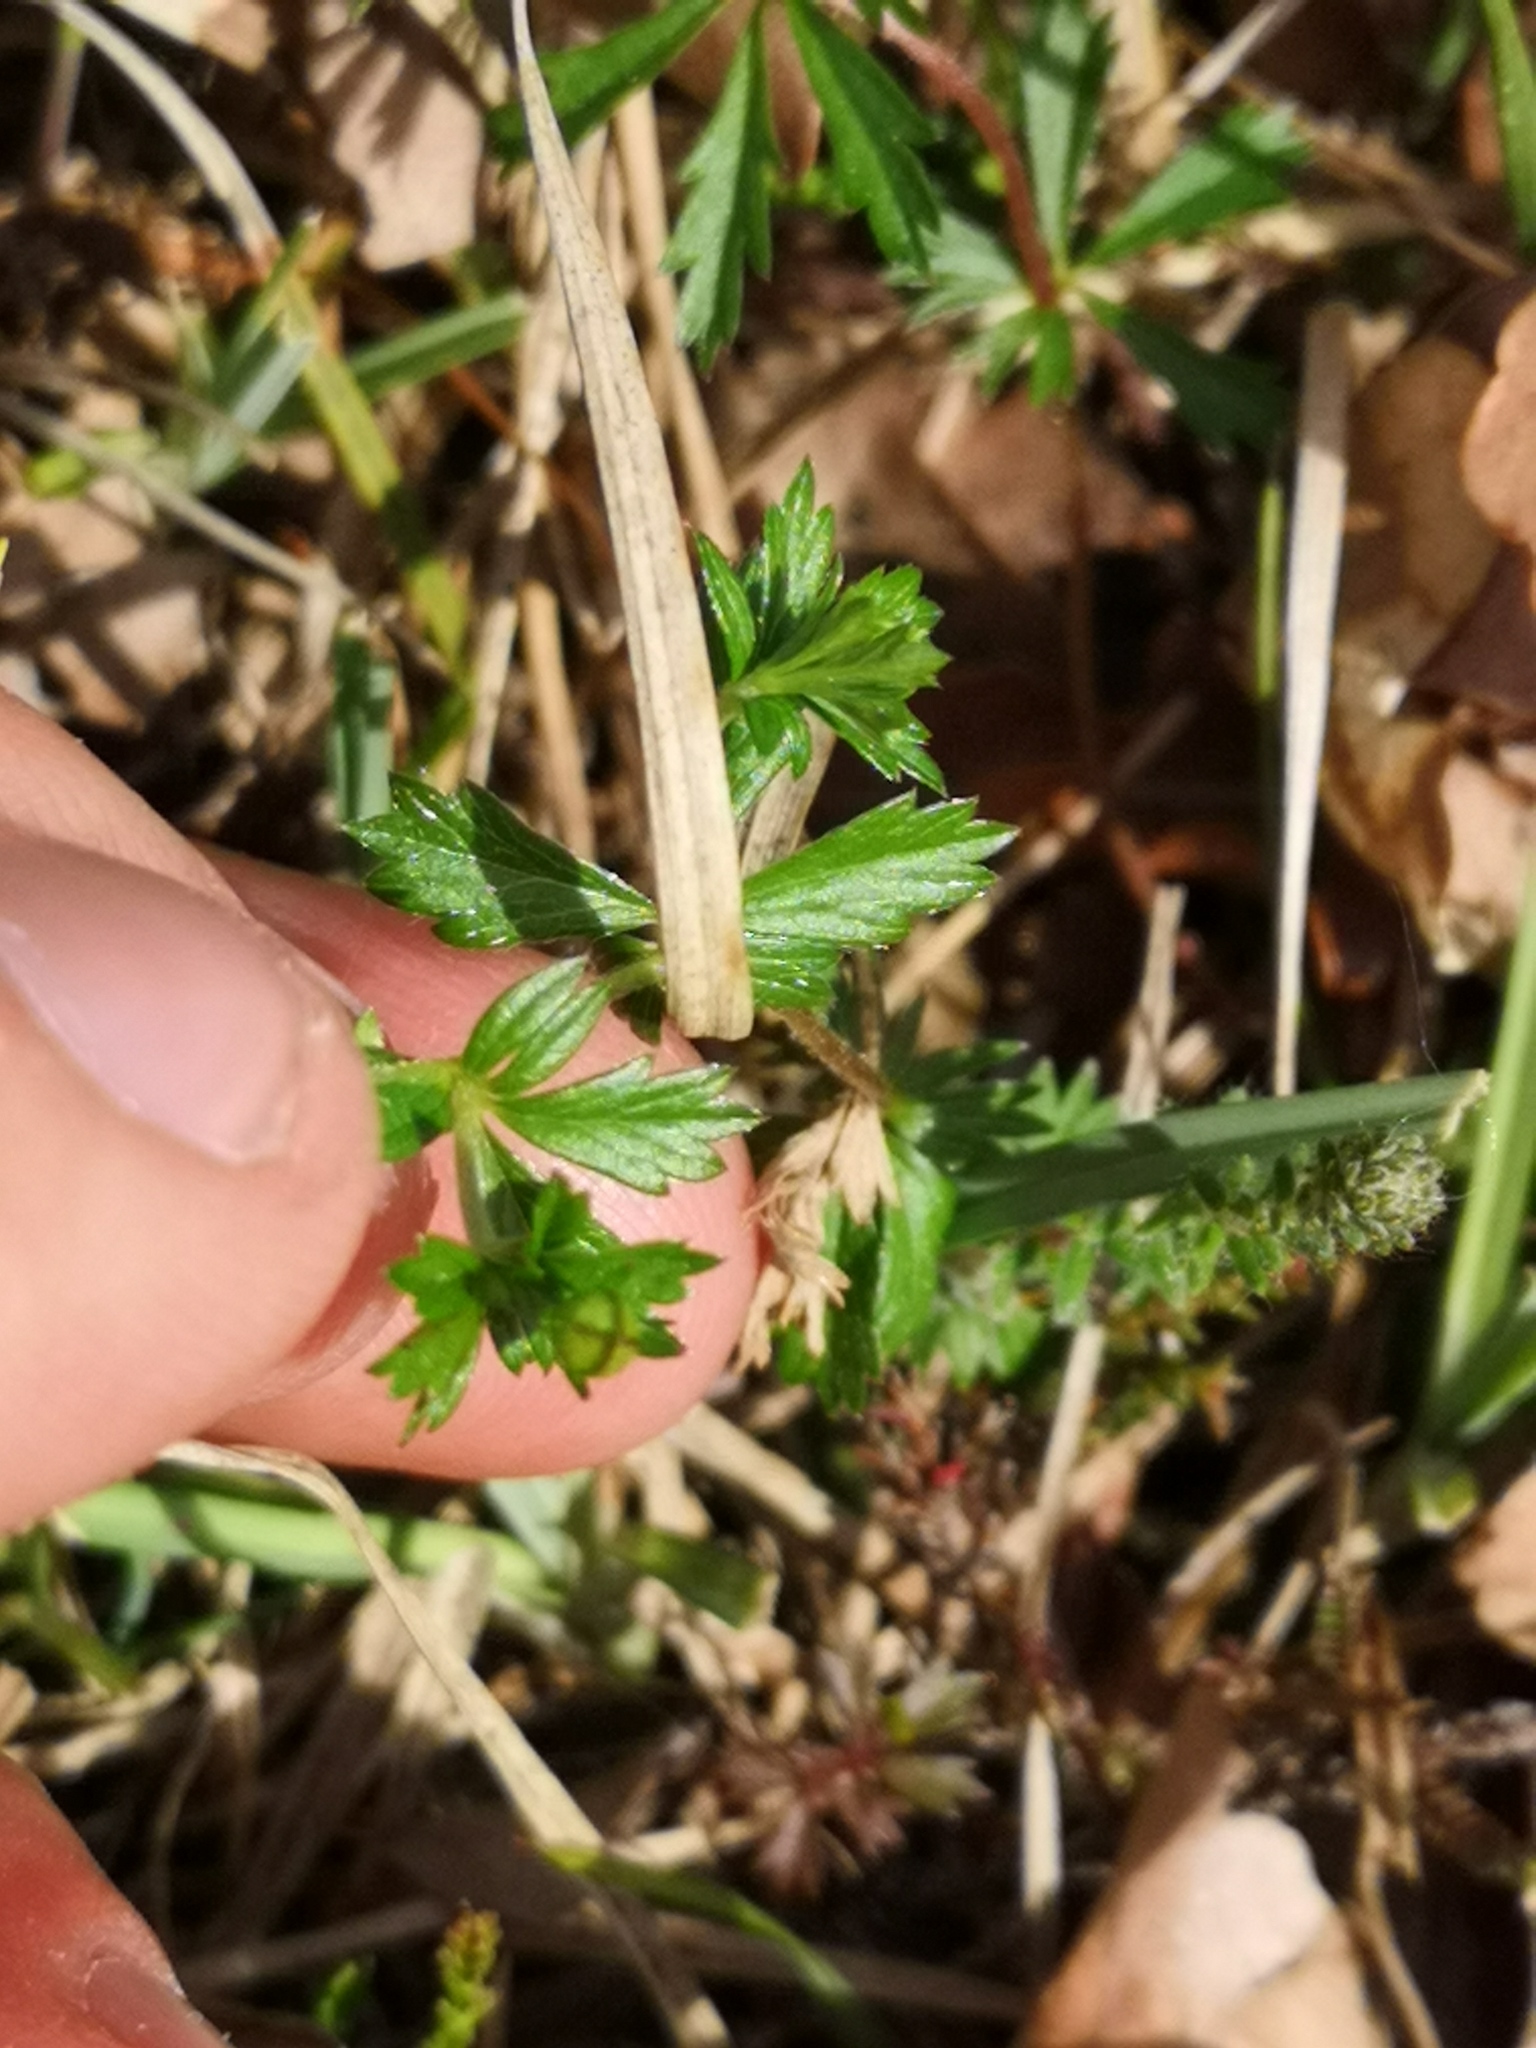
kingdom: Plantae
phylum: Tracheophyta
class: Magnoliopsida
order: Rosales
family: Rosaceae
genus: Potentilla
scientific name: Potentilla erecta
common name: Tormentil
